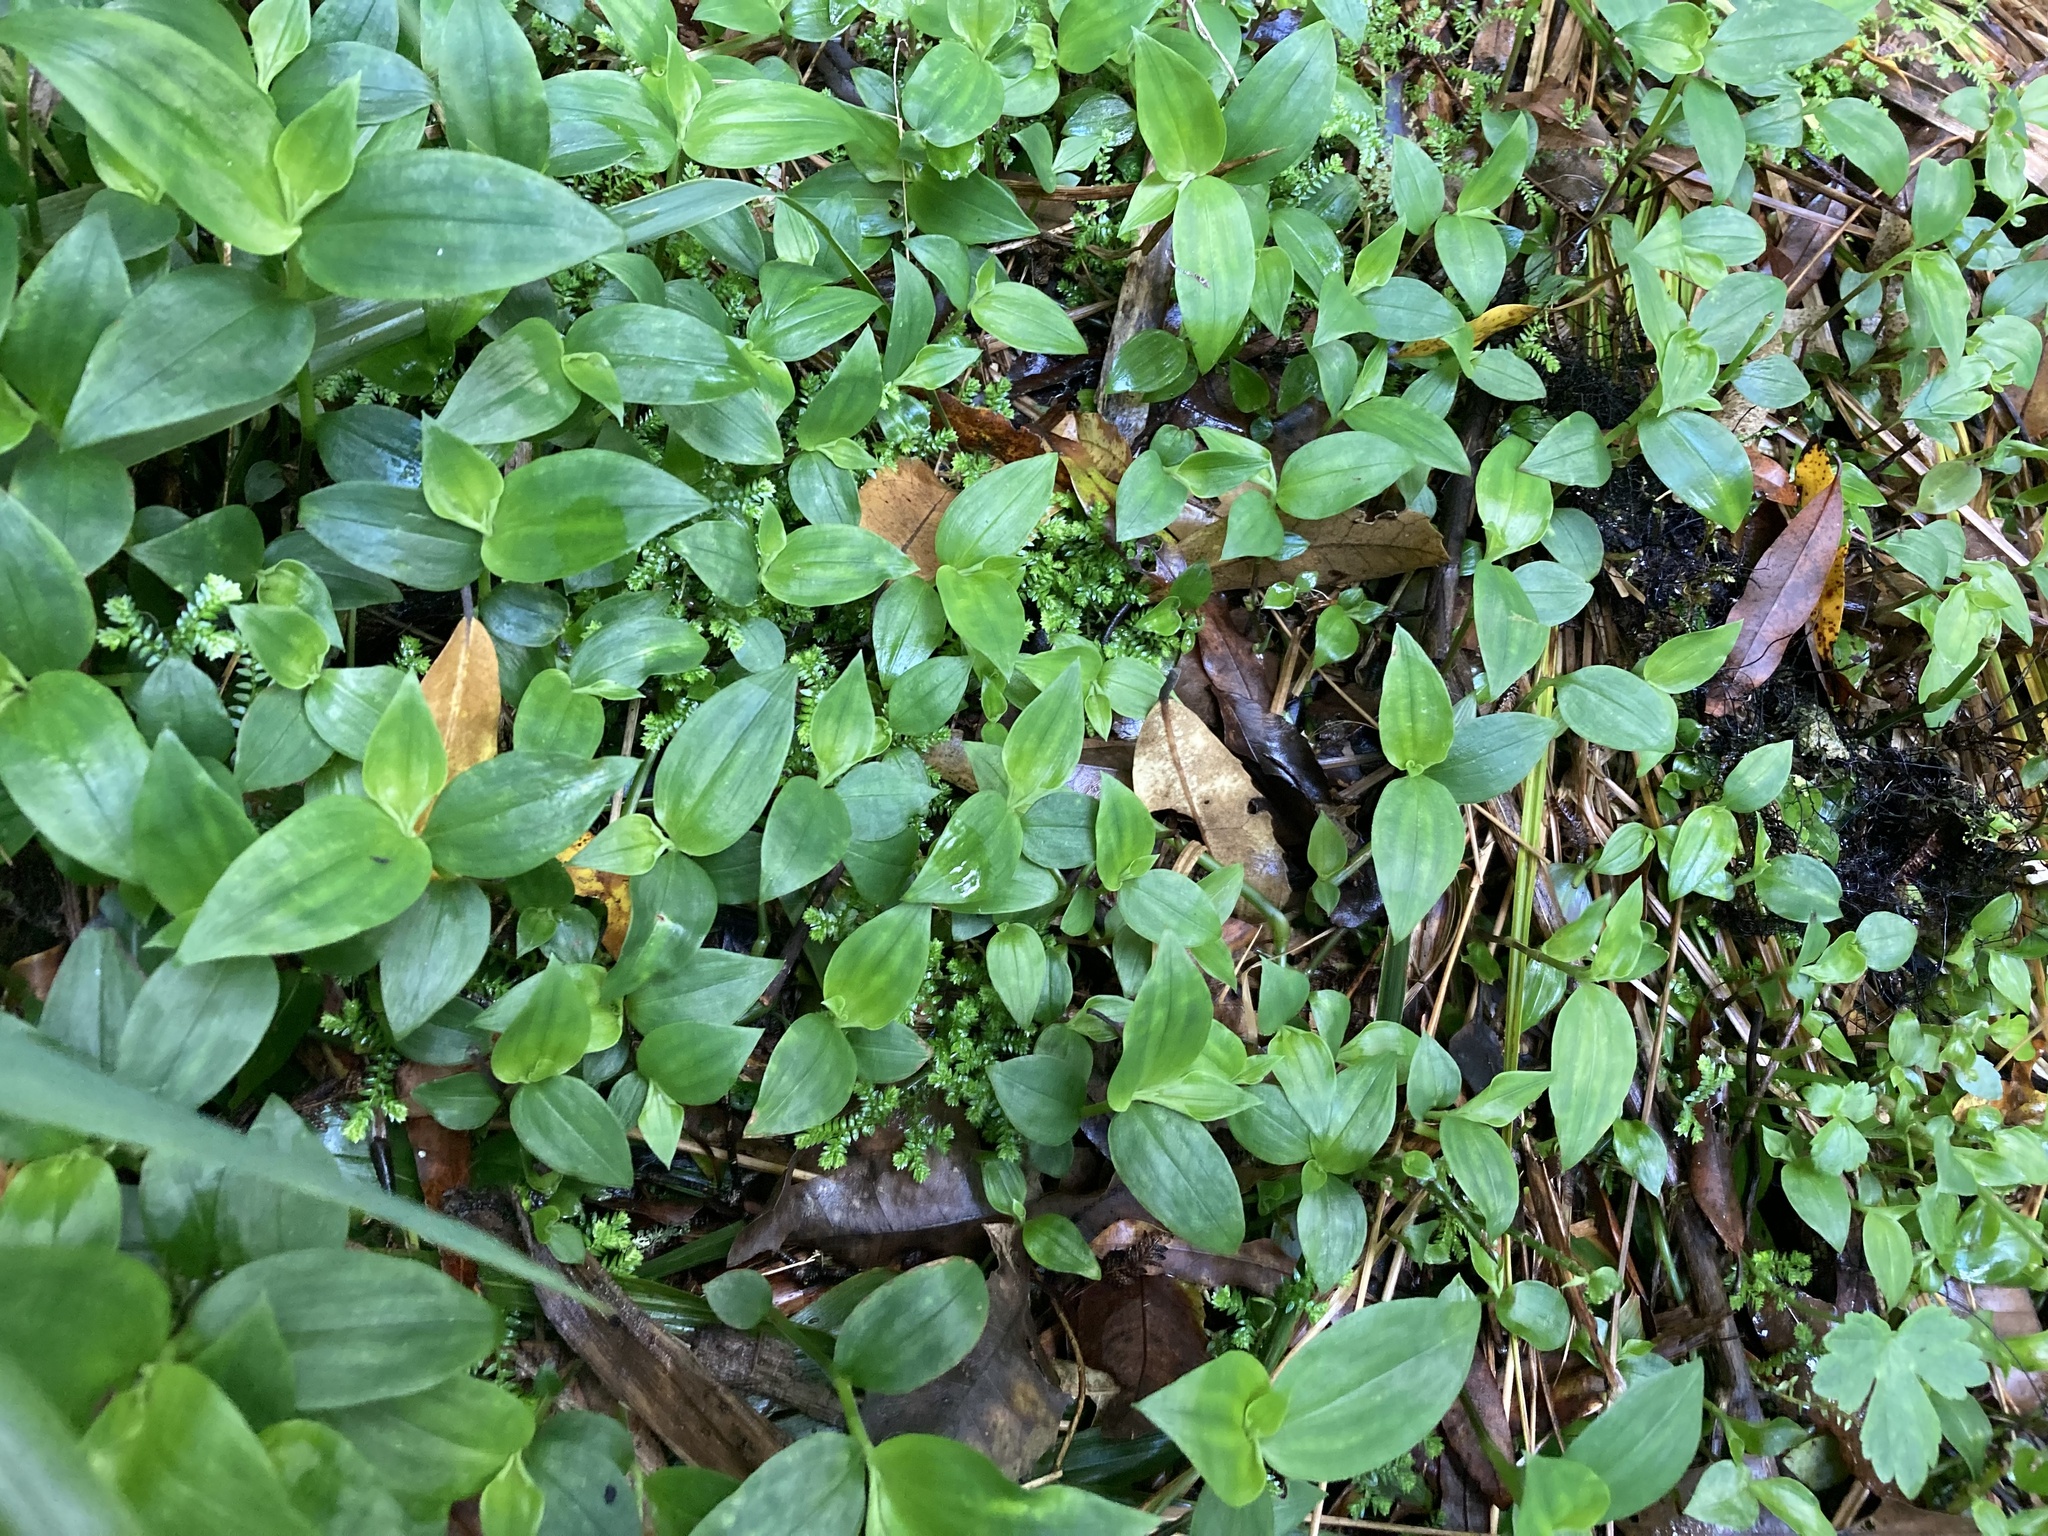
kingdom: Plantae
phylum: Tracheophyta
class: Liliopsida
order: Commelinales
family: Commelinaceae
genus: Tradescantia
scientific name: Tradescantia fluminensis
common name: Wandering-jew
